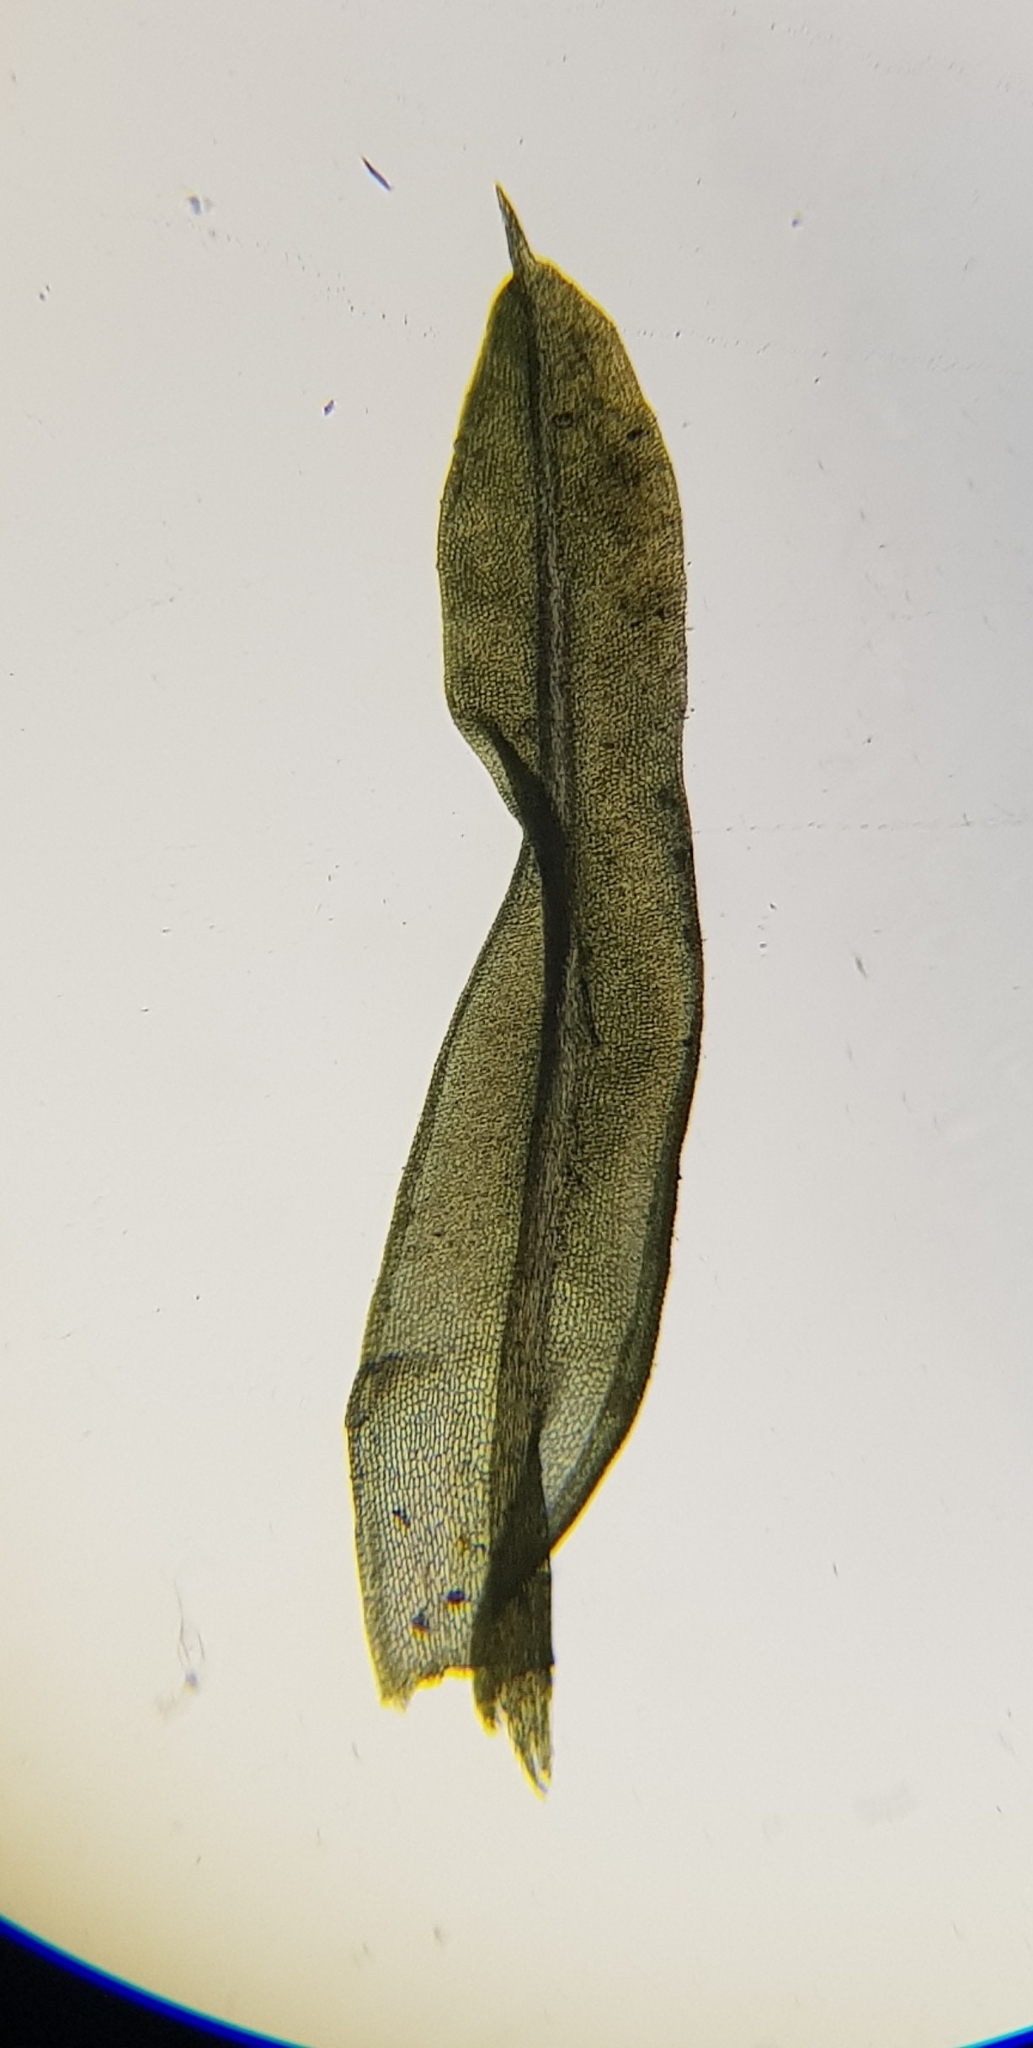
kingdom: Plantae
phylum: Bryophyta
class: Bryopsida
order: Pottiales
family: Pottiaceae
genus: Barbula
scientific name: Barbula unguiculata
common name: Prickly beard moss
